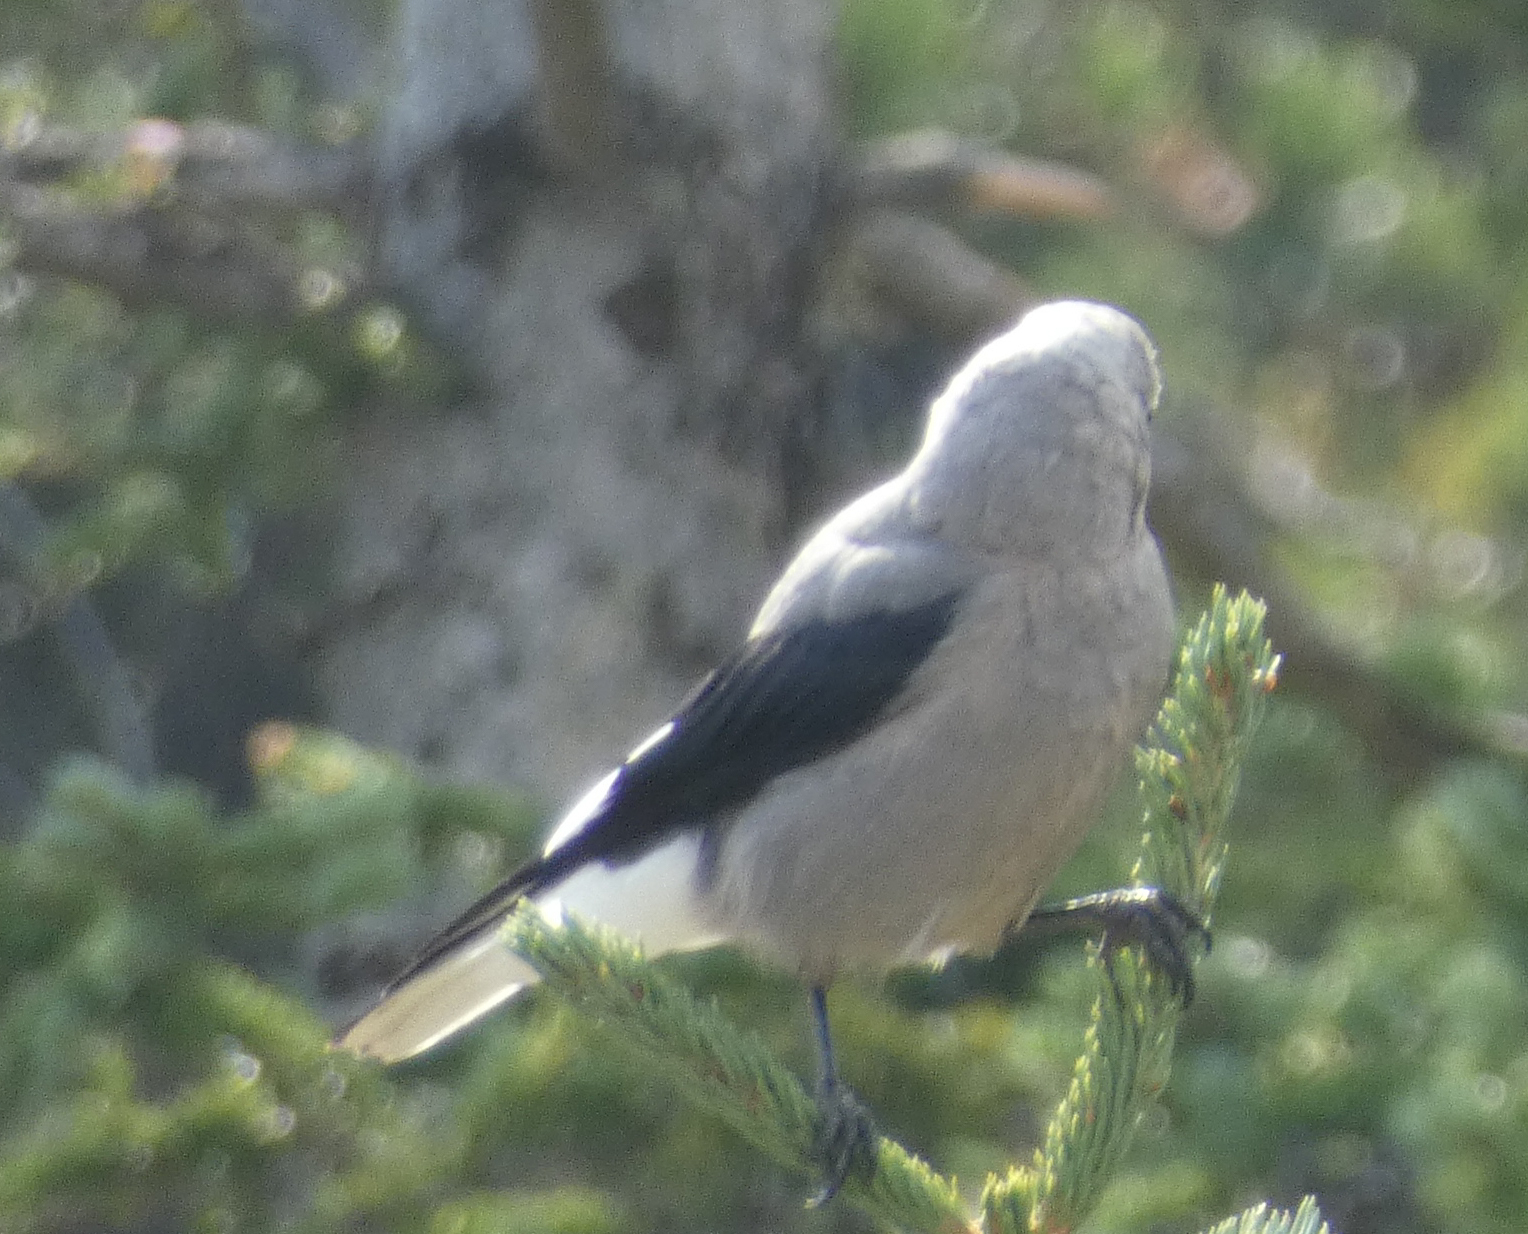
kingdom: Animalia
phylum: Chordata
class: Aves
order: Passeriformes
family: Corvidae
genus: Nucifraga
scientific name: Nucifraga columbiana
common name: Clark's nutcracker
